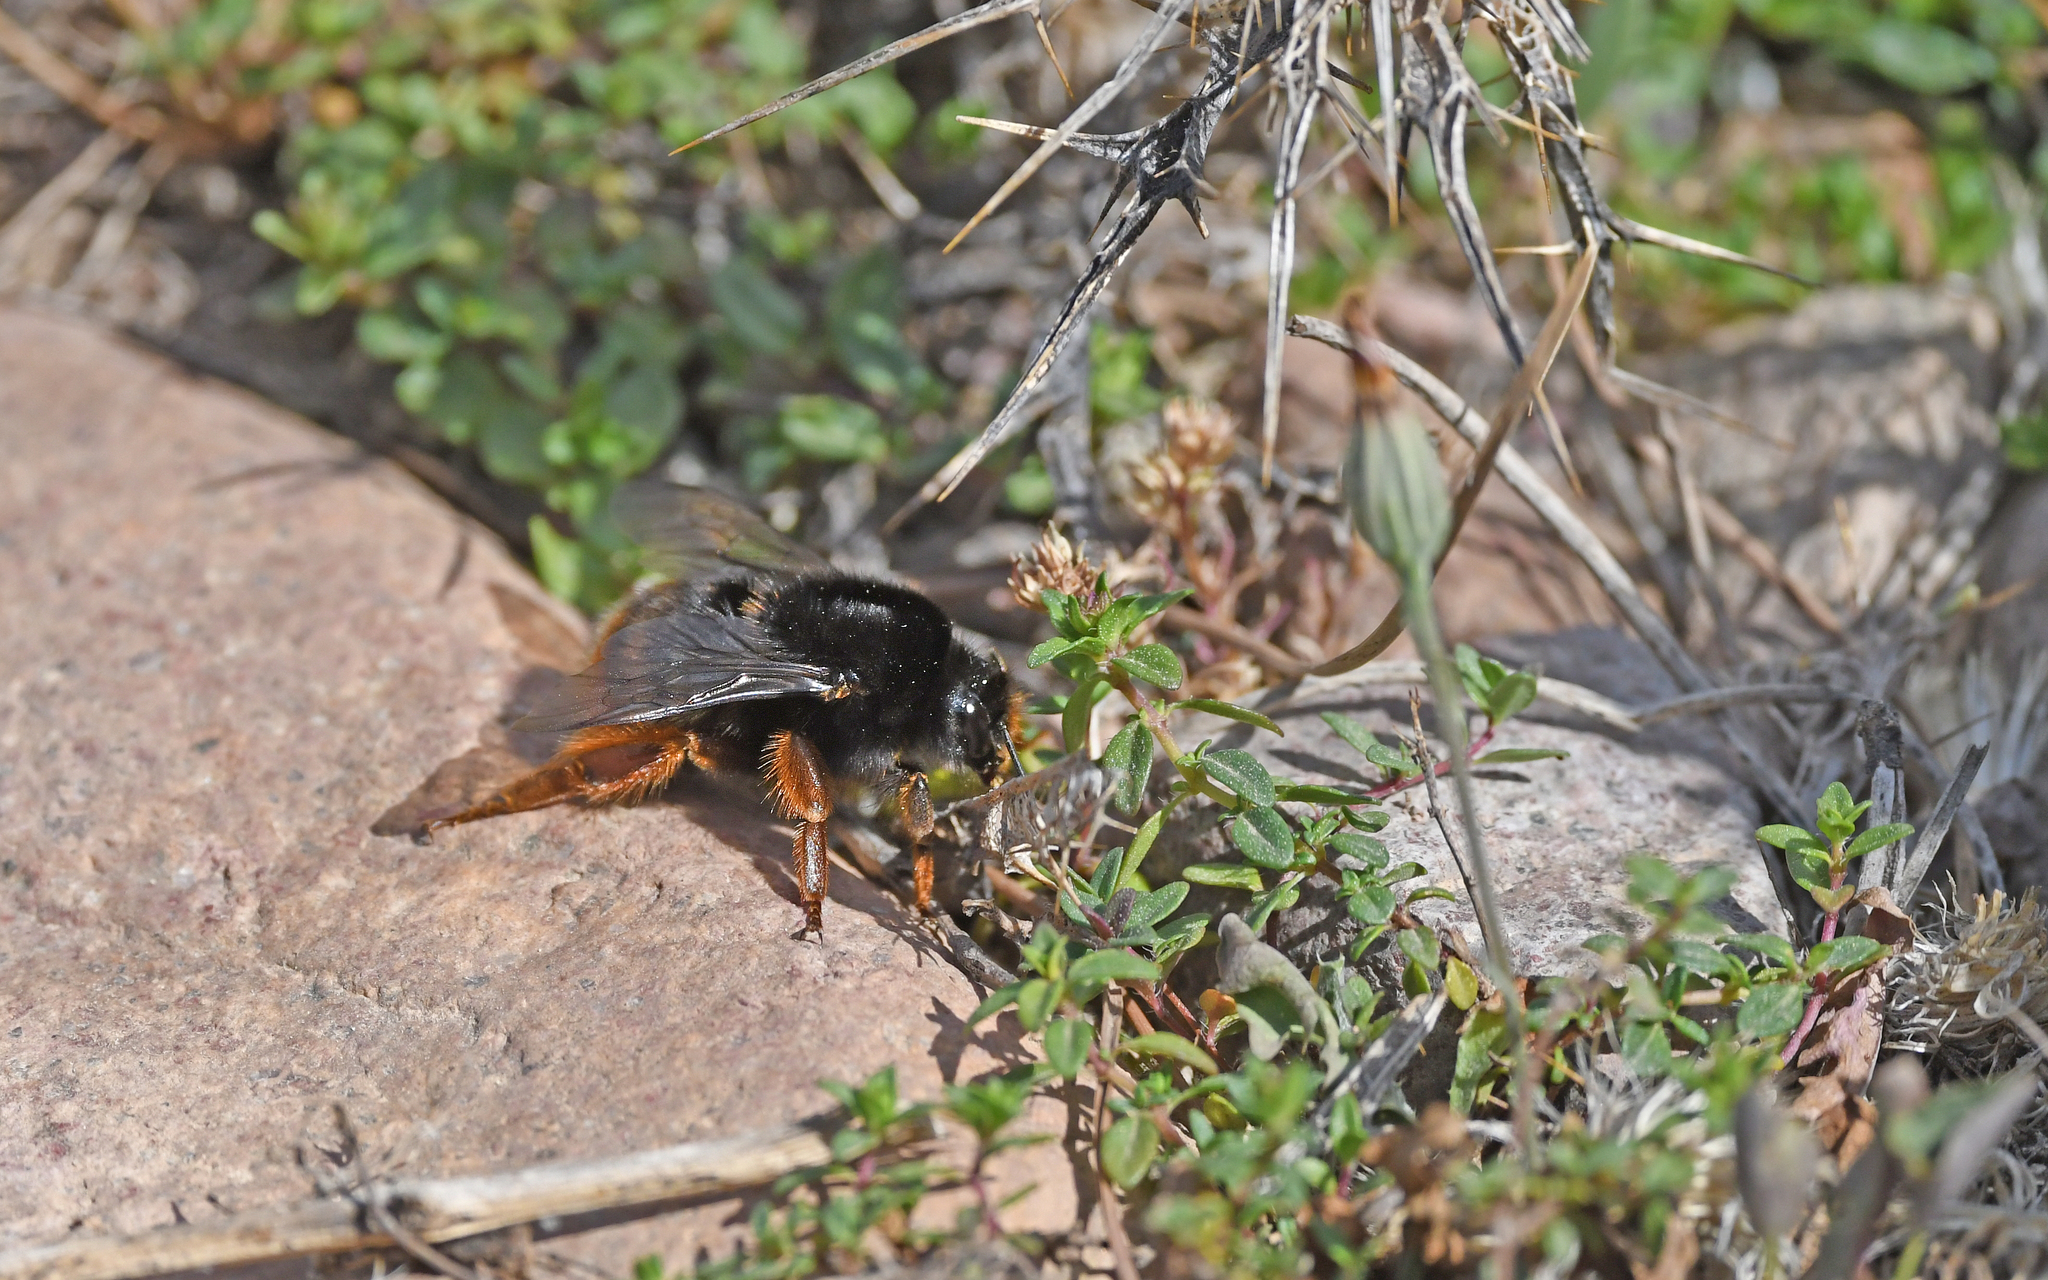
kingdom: Animalia
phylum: Arthropoda
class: Insecta
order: Hymenoptera
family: Apidae
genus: Bombus
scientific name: Bombus terrestris
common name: Buff-tailed bumblebee
